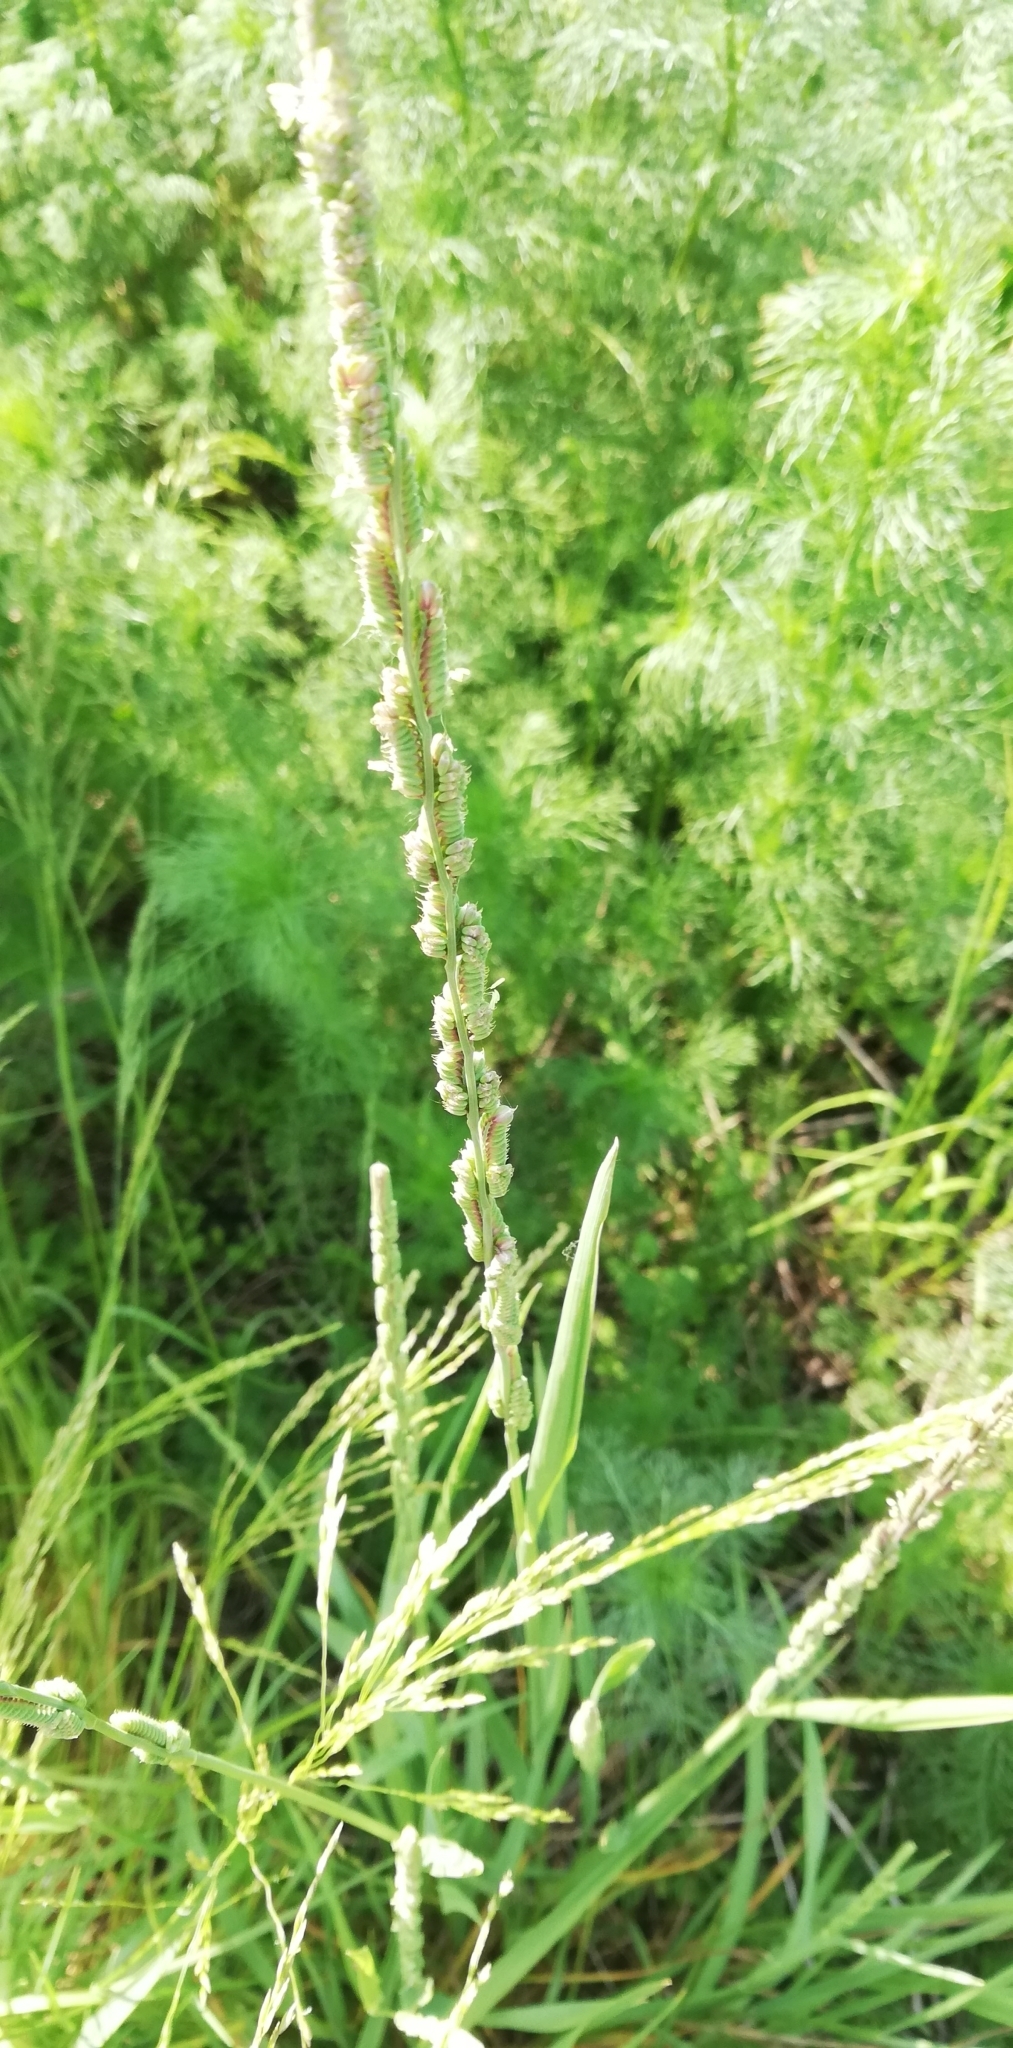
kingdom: Plantae
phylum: Tracheophyta
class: Liliopsida
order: Poales
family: Poaceae
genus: Beckmannia
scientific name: Beckmannia eruciformis
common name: European slough-grass
